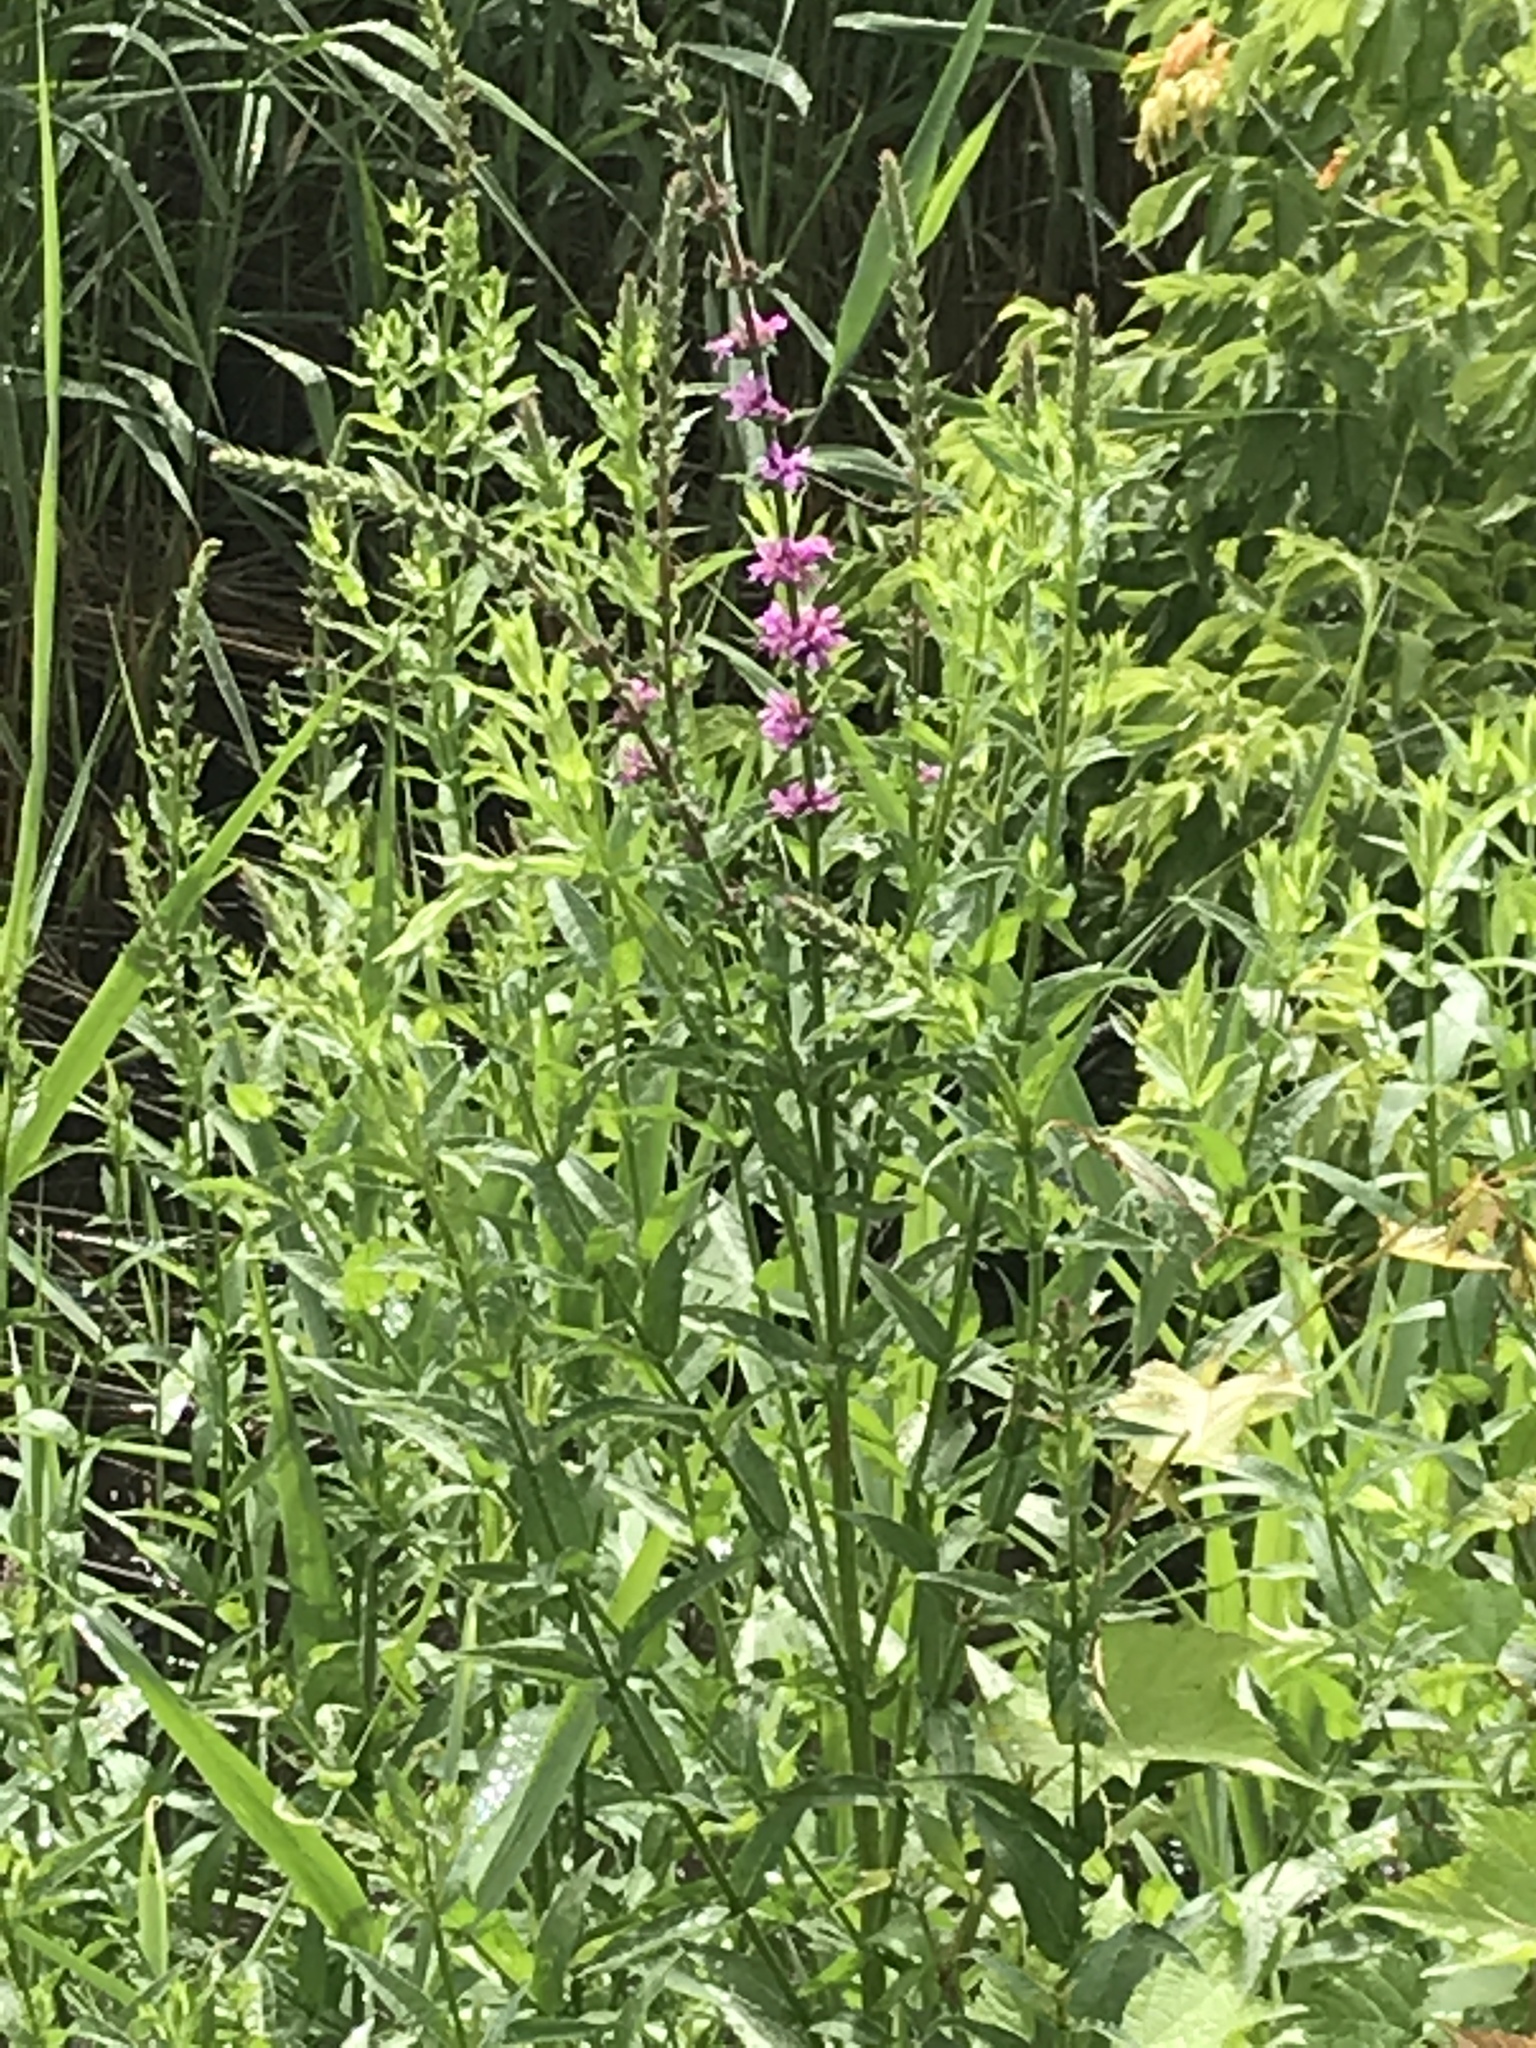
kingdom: Plantae
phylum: Tracheophyta
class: Magnoliopsida
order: Myrtales
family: Lythraceae
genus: Lythrum
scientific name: Lythrum salicaria
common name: Purple loosestrife
